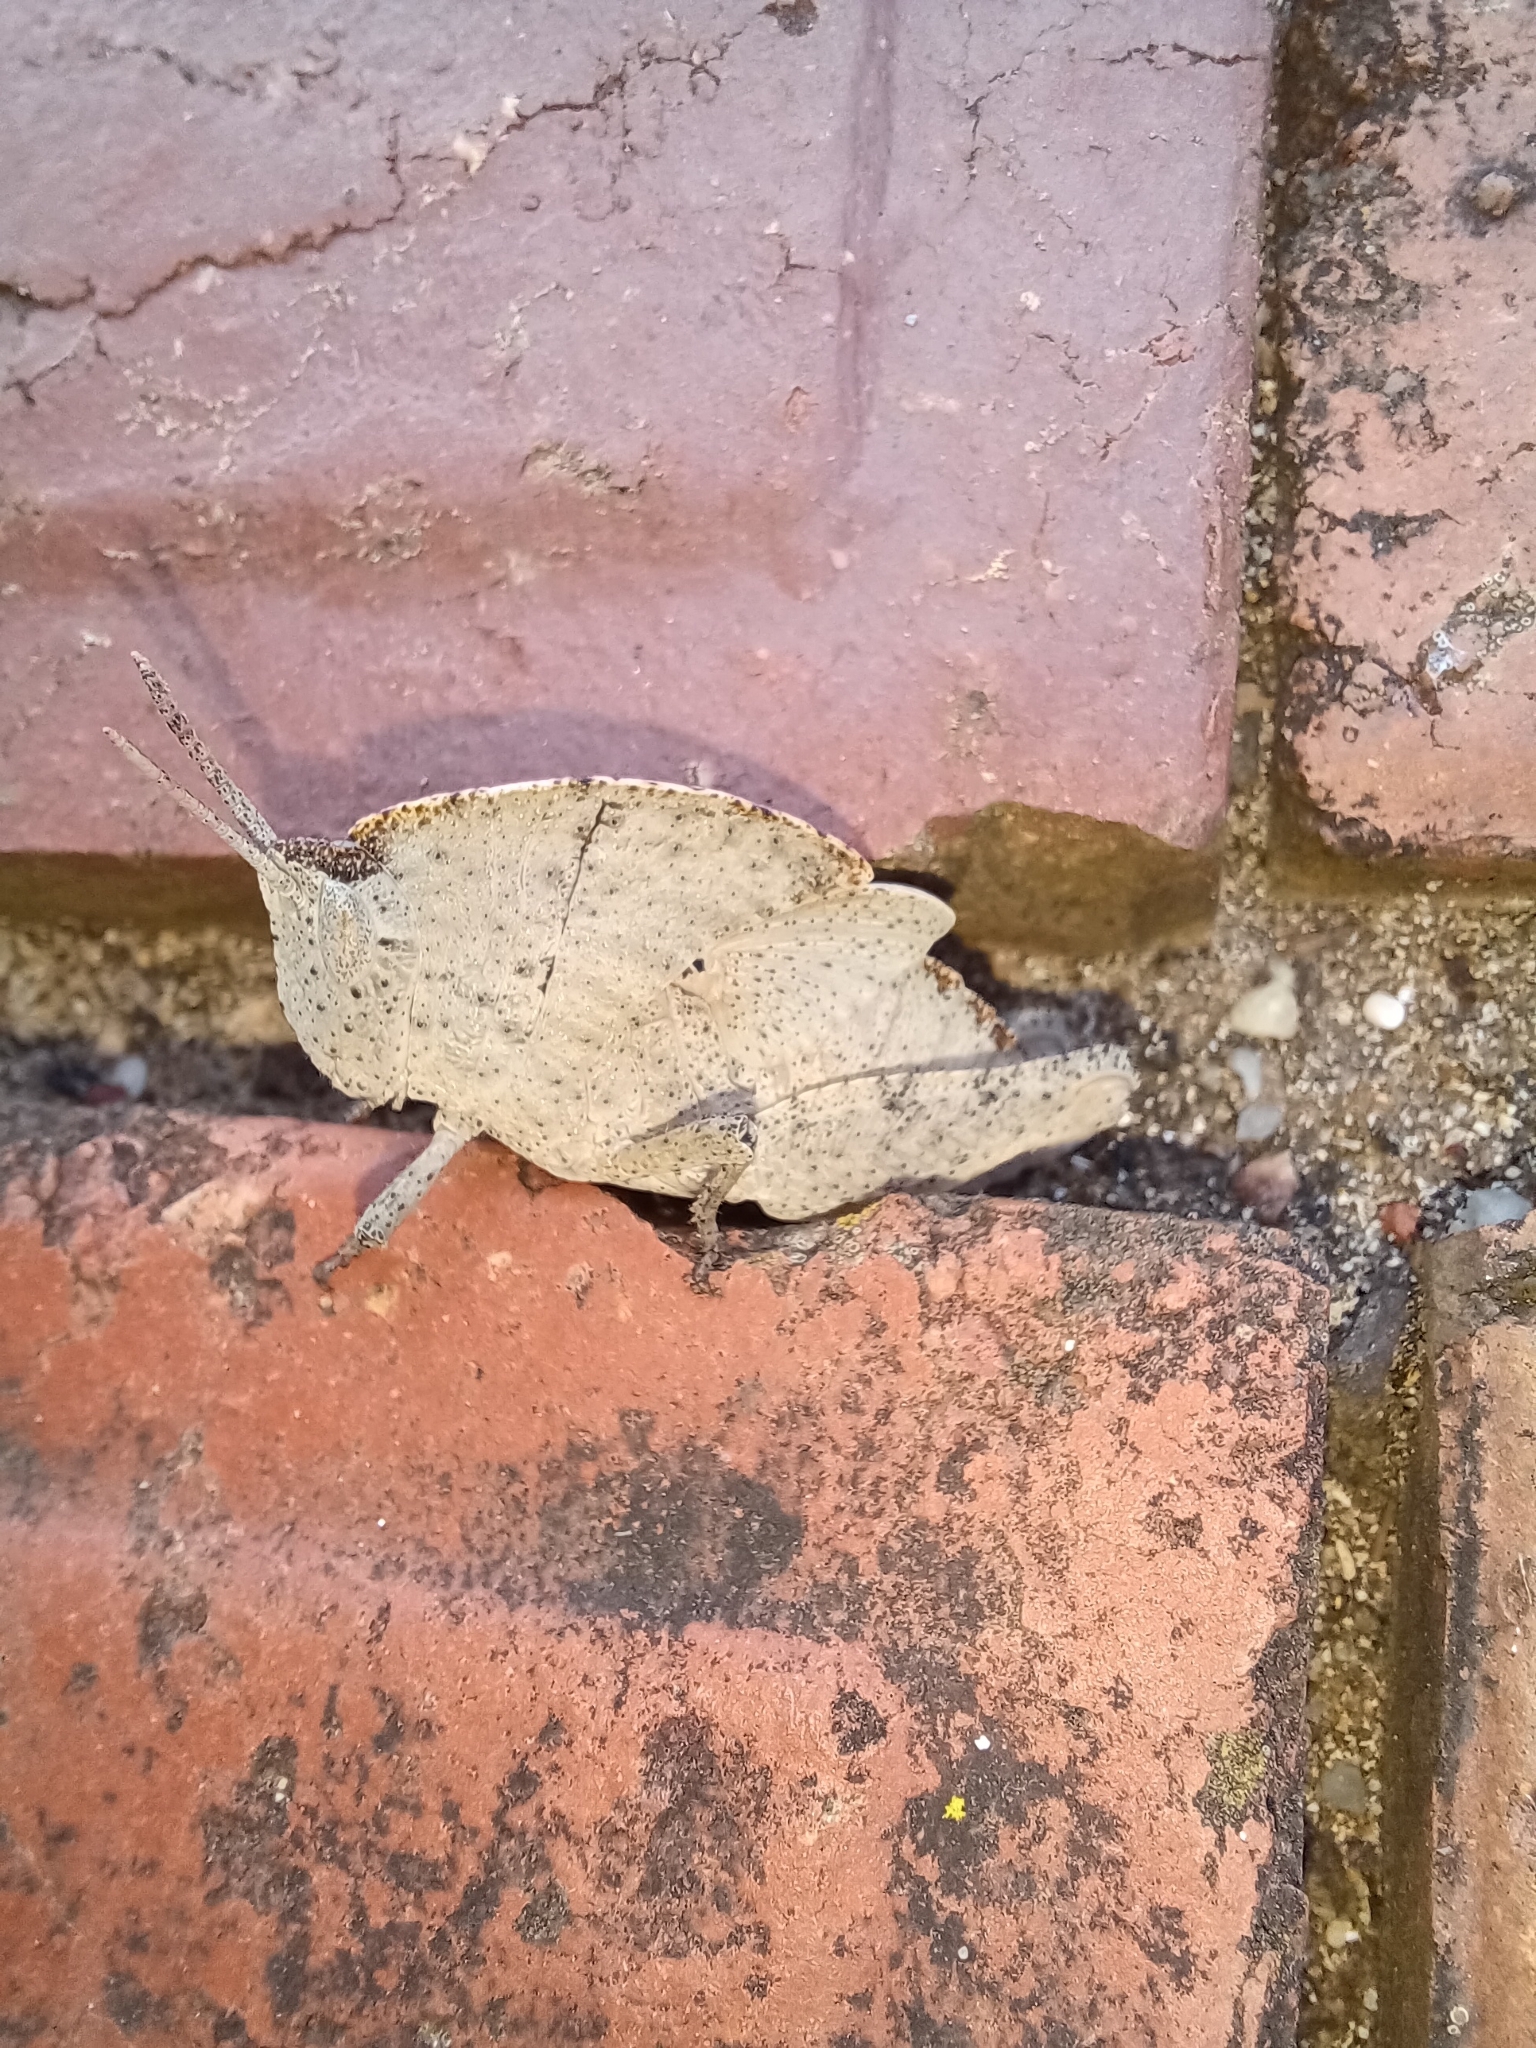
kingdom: Animalia
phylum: Arthropoda
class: Insecta
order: Orthoptera
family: Acrididae
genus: Goniaea
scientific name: Goniaea australasiae
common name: Gumleaf grasshopper
